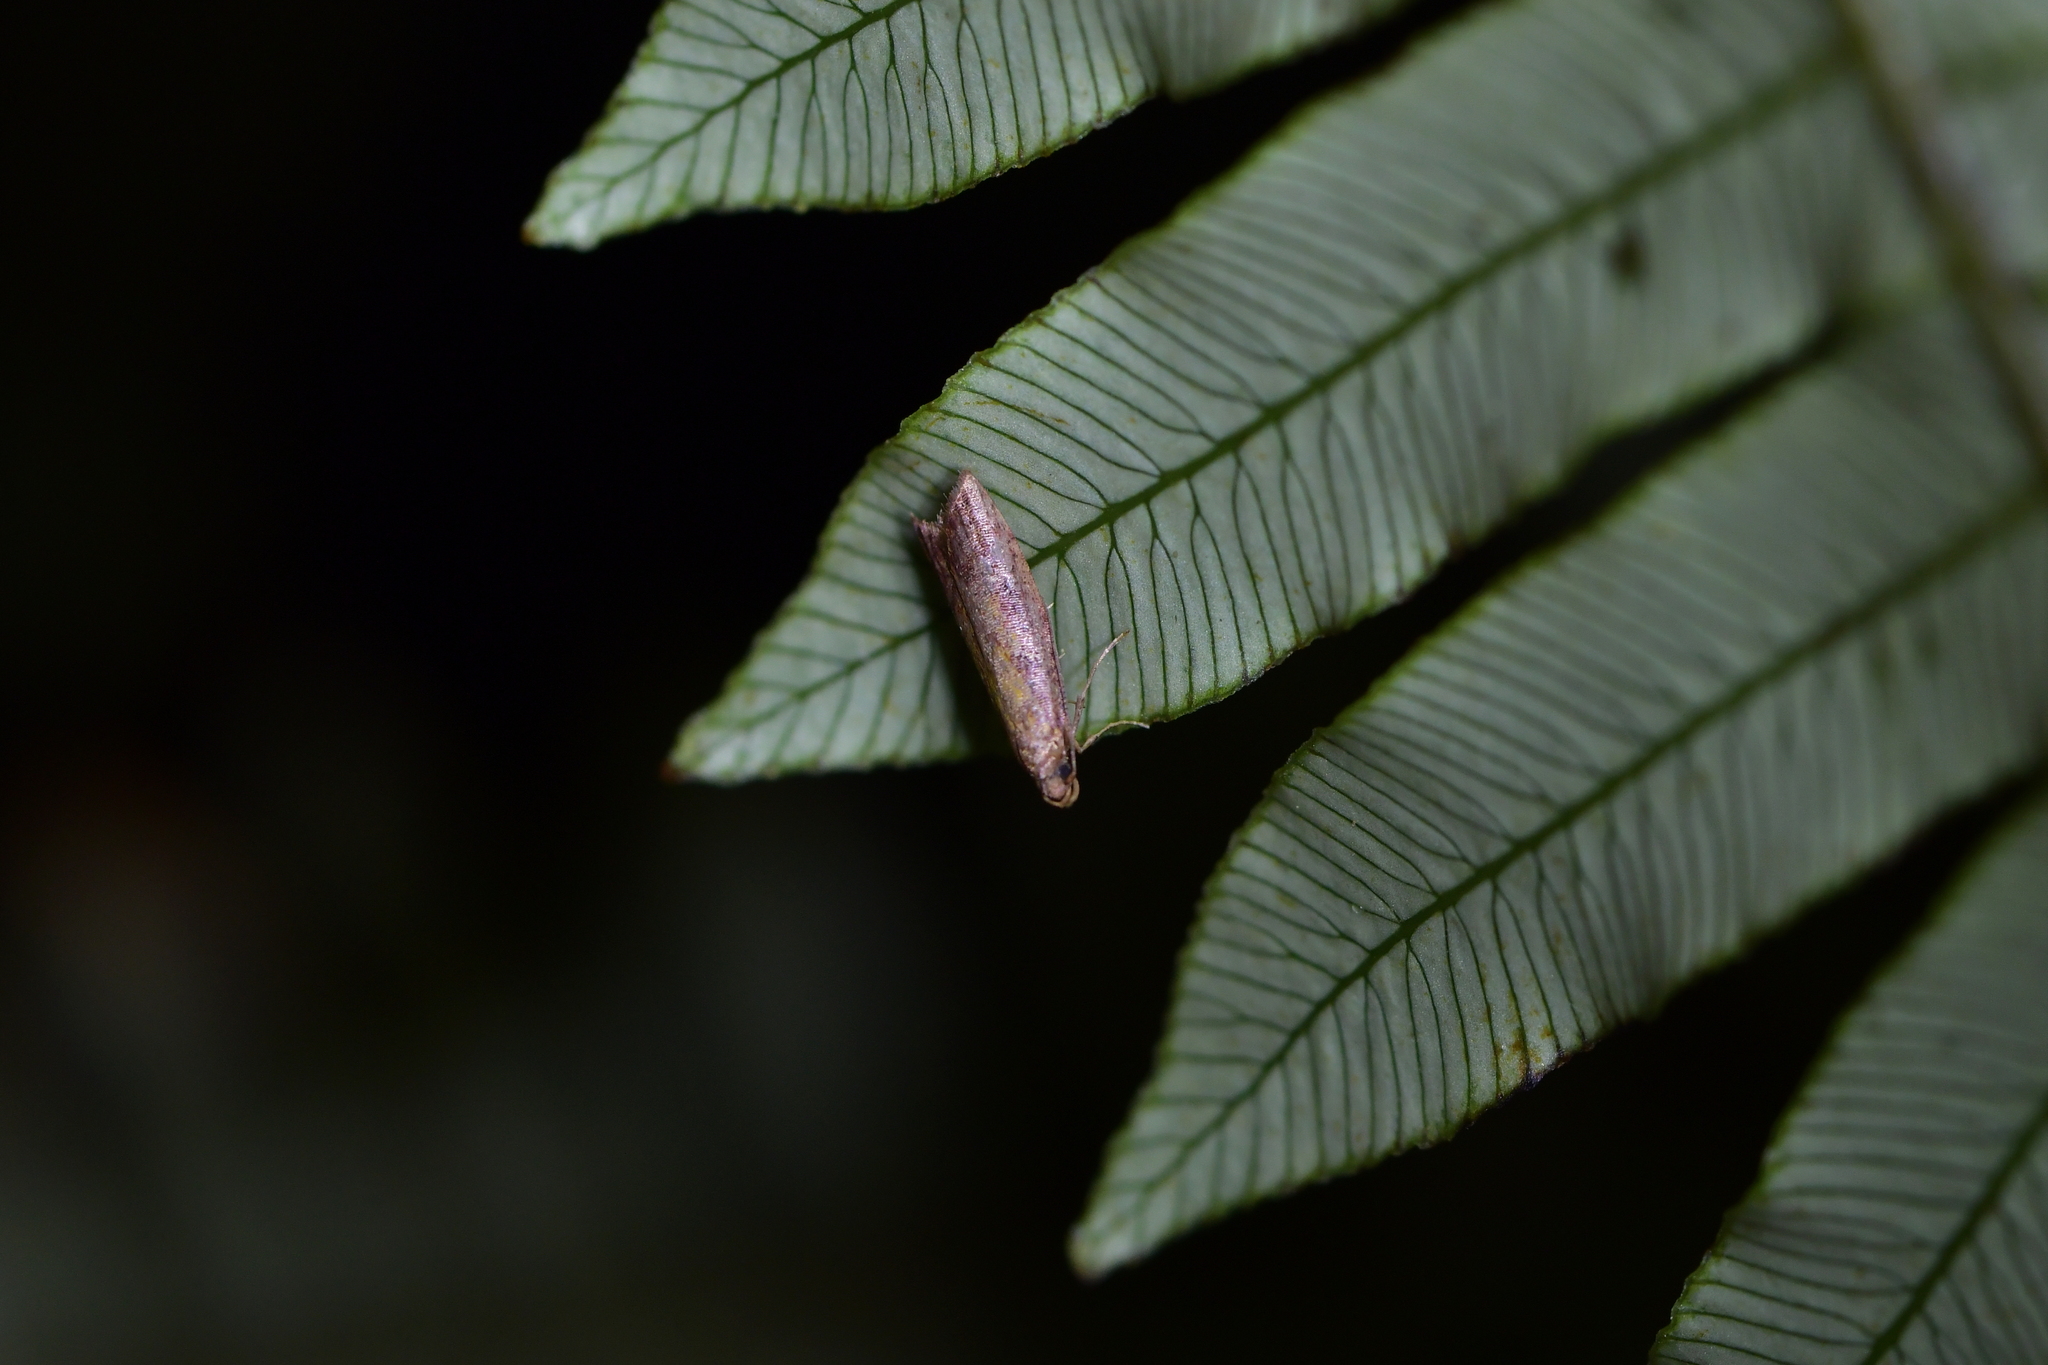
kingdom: Animalia
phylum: Arthropoda
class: Insecta
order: Lepidoptera
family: Plutellidae
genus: Cadmogenes
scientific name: Cadmogenes literata
